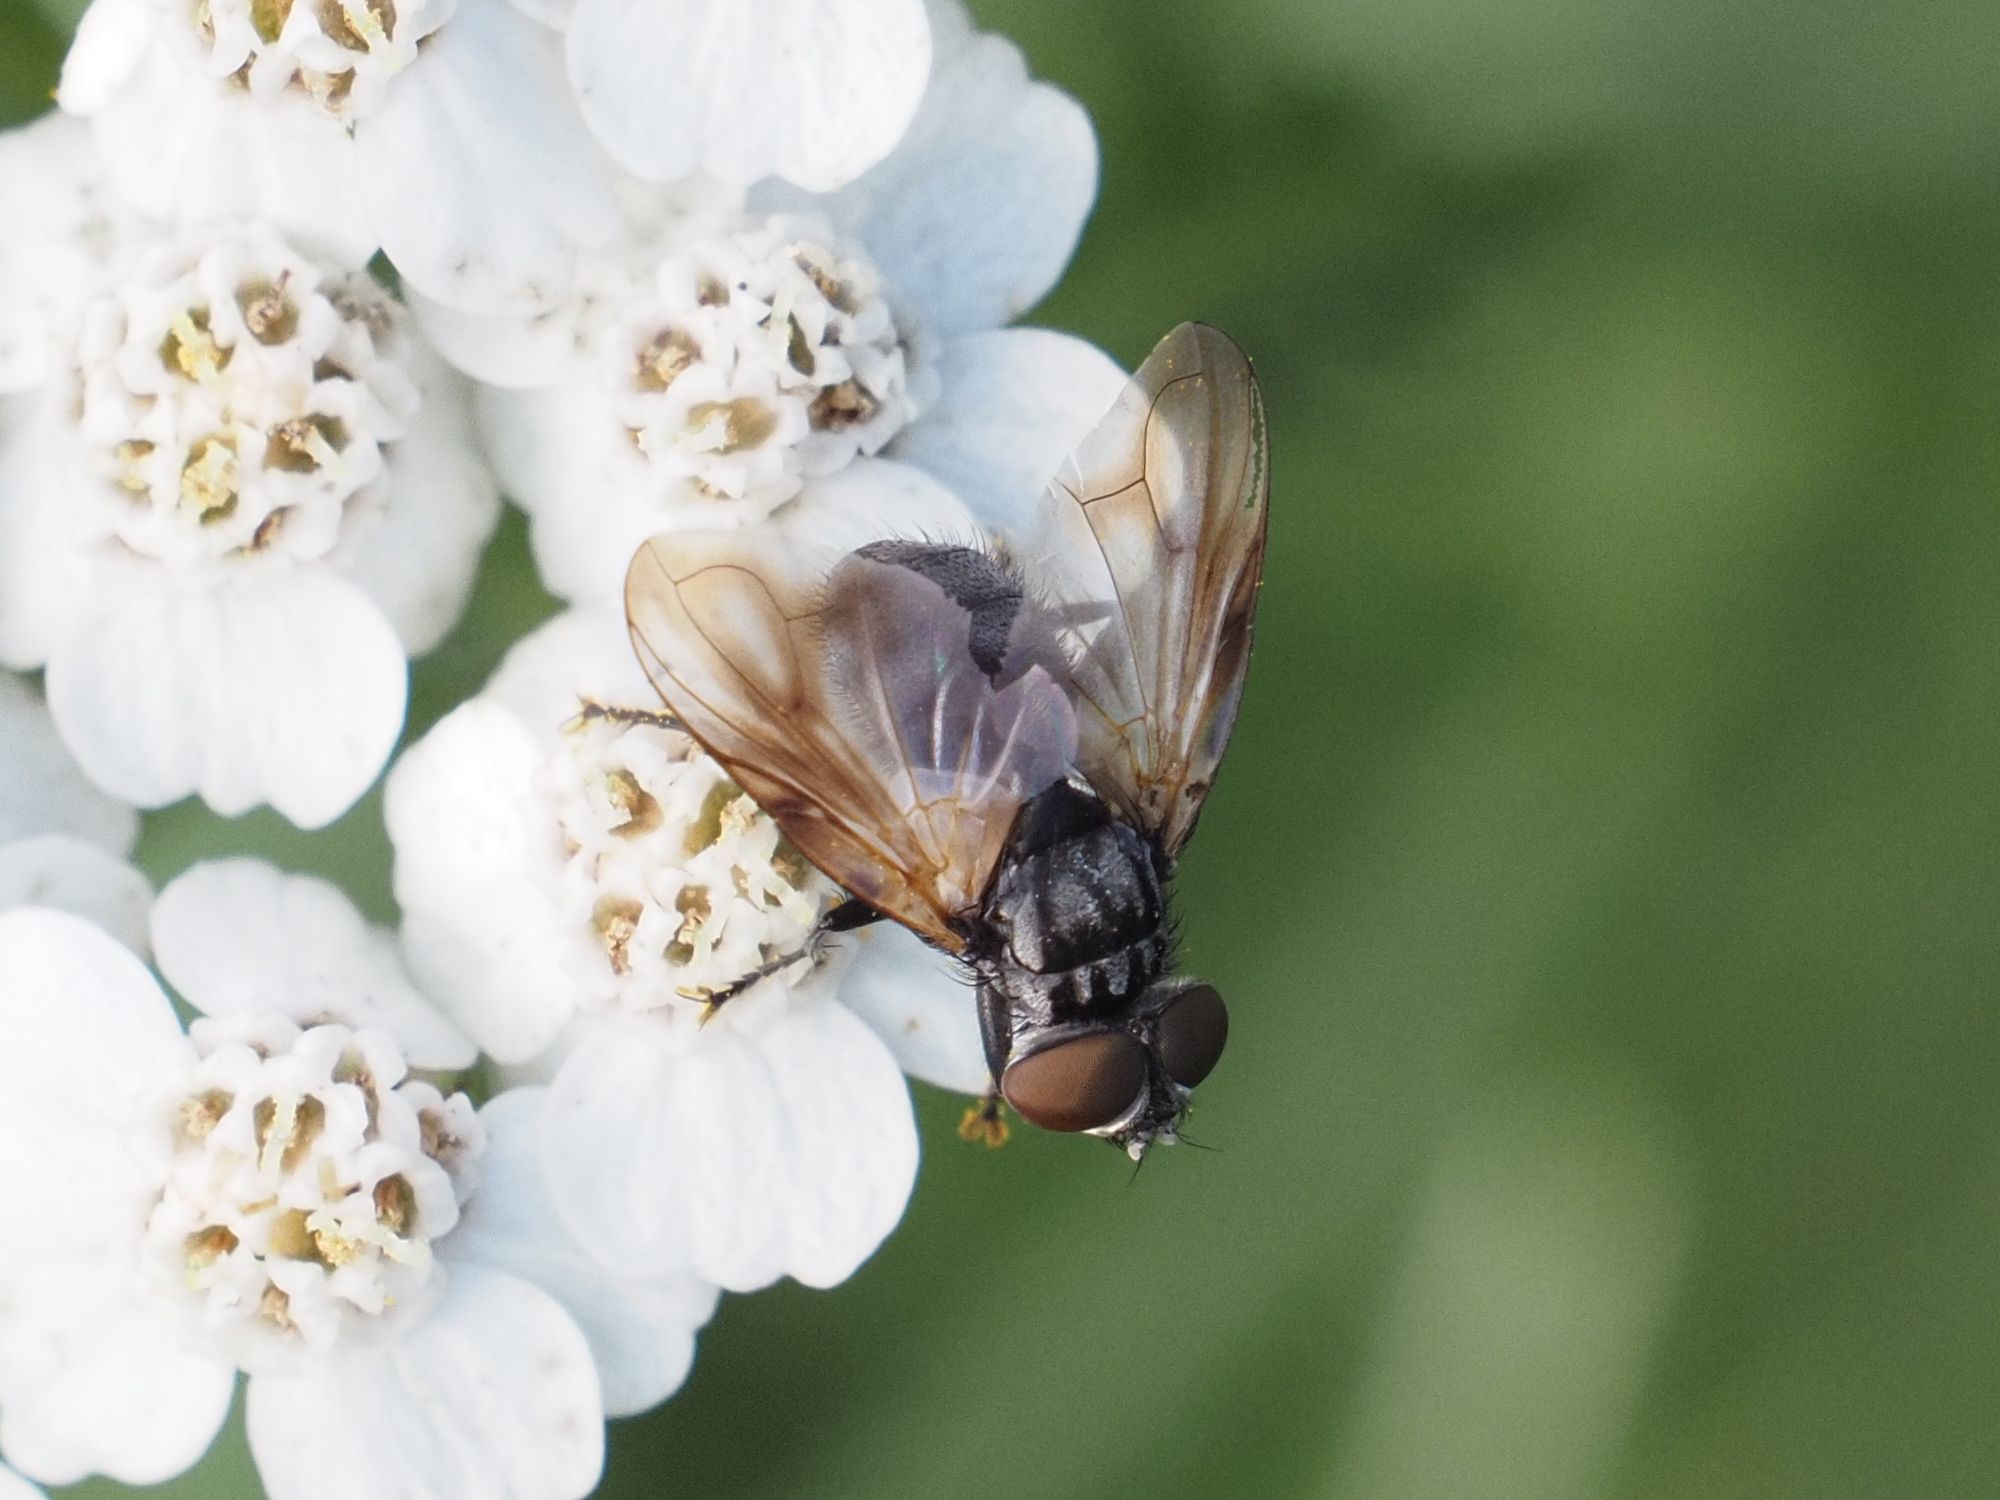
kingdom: Animalia
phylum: Arthropoda
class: Insecta
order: Diptera
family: Tachinidae
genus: Phasia
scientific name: Phasia obesa
